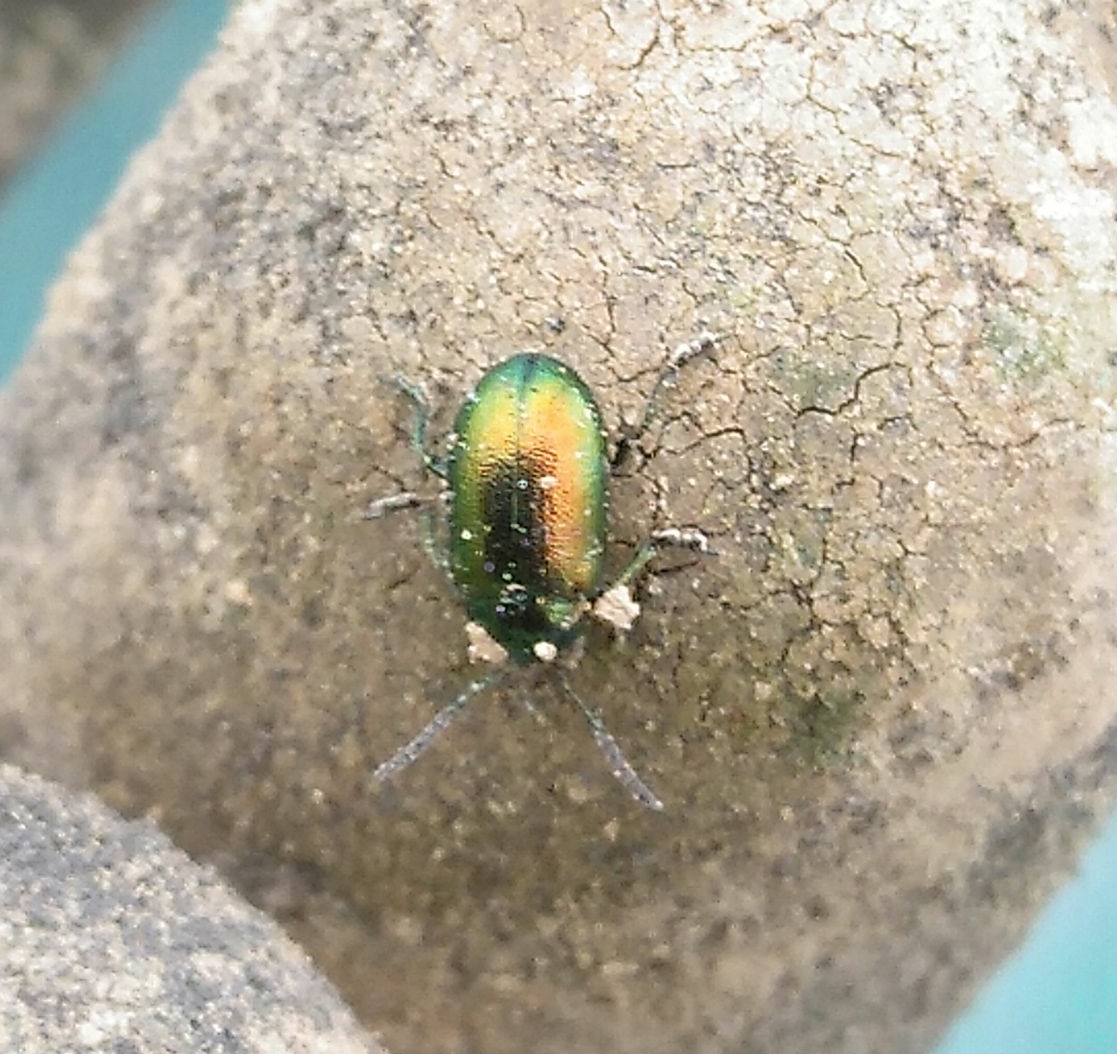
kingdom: Animalia
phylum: Arthropoda
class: Insecta
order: Coleoptera
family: Chrysomelidae
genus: Gastrophysa
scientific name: Gastrophysa viridula
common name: Green dock beetle
